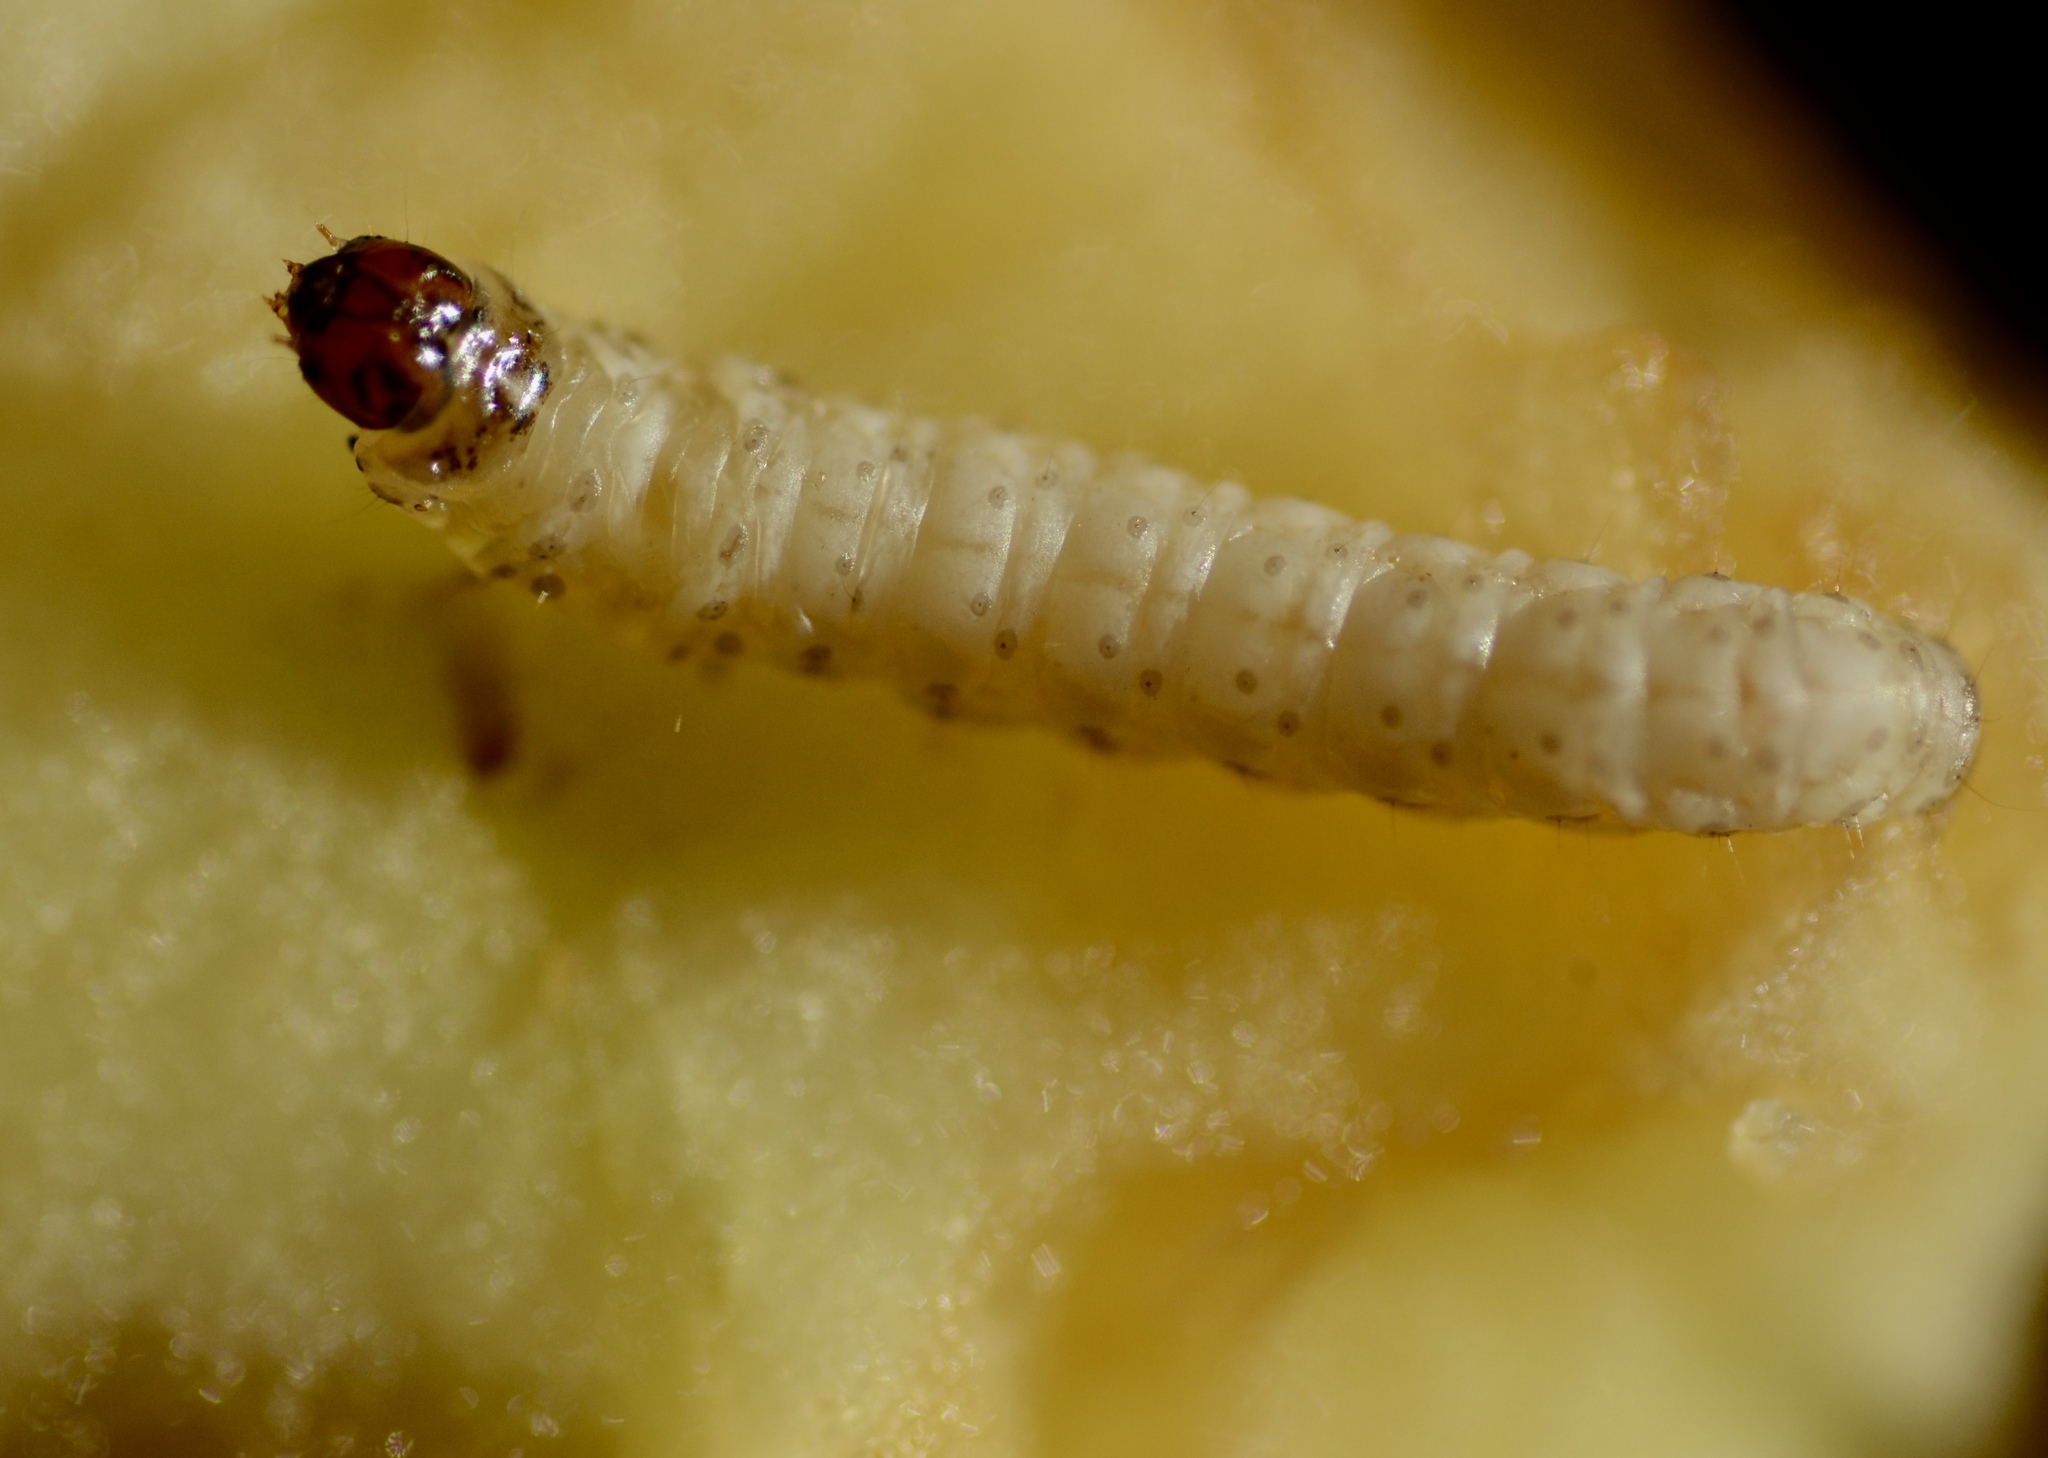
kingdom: Animalia
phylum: Arthropoda
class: Insecta
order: Lepidoptera
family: Tortricidae
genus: Cydia
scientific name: Cydia pomonella
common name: Codling moth
